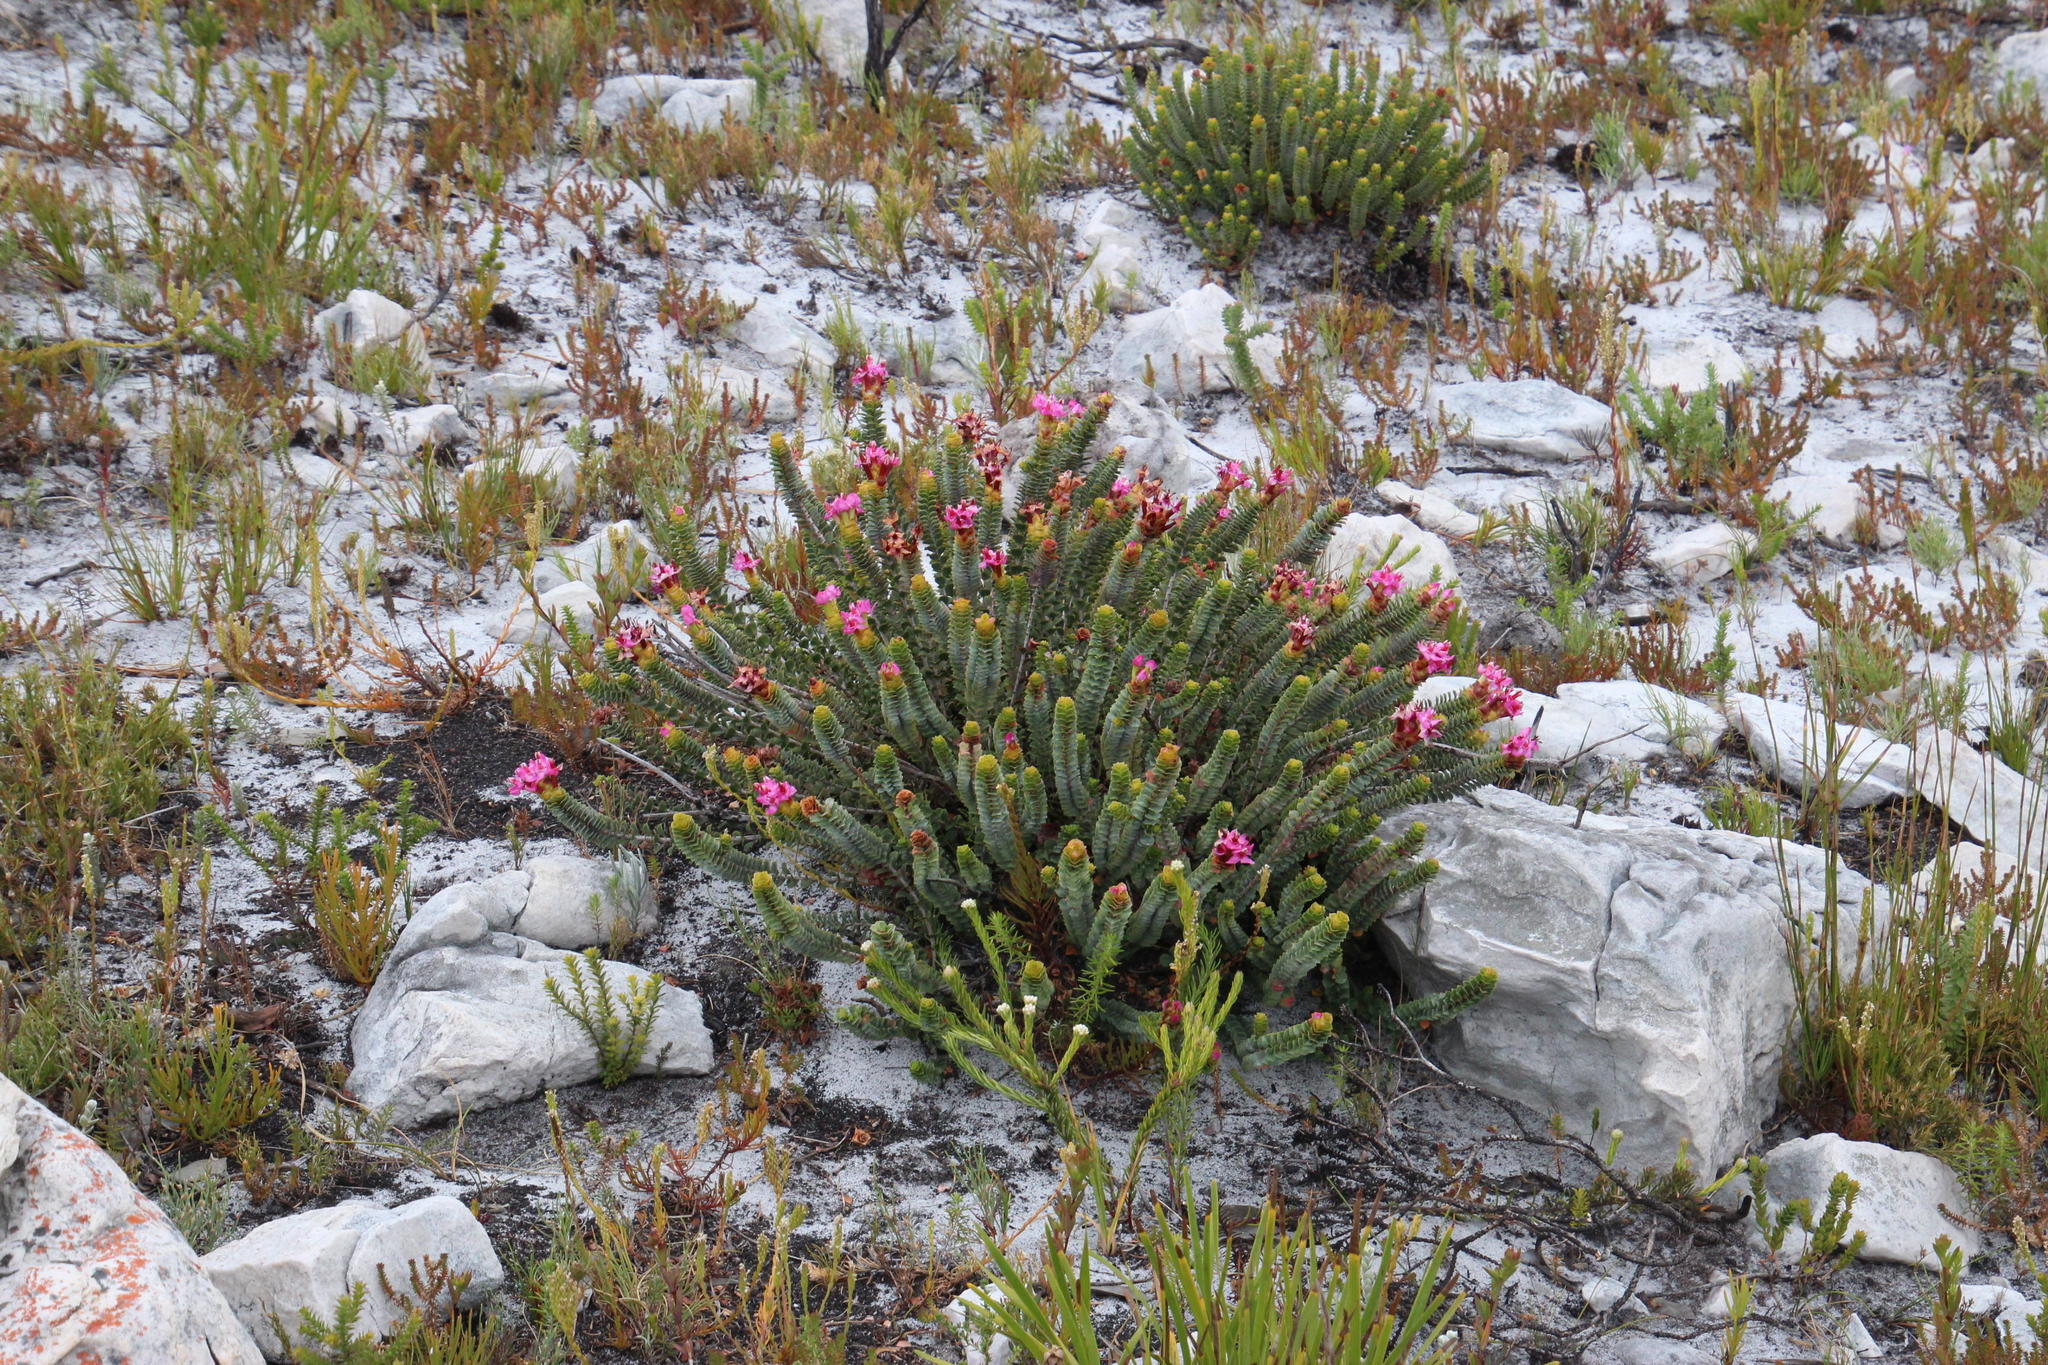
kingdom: Plantae
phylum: Tracheophyta
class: Magnoliopsida
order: Myrtales
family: Penaeaceae
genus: Saltera
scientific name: Saltera sarcocolla
